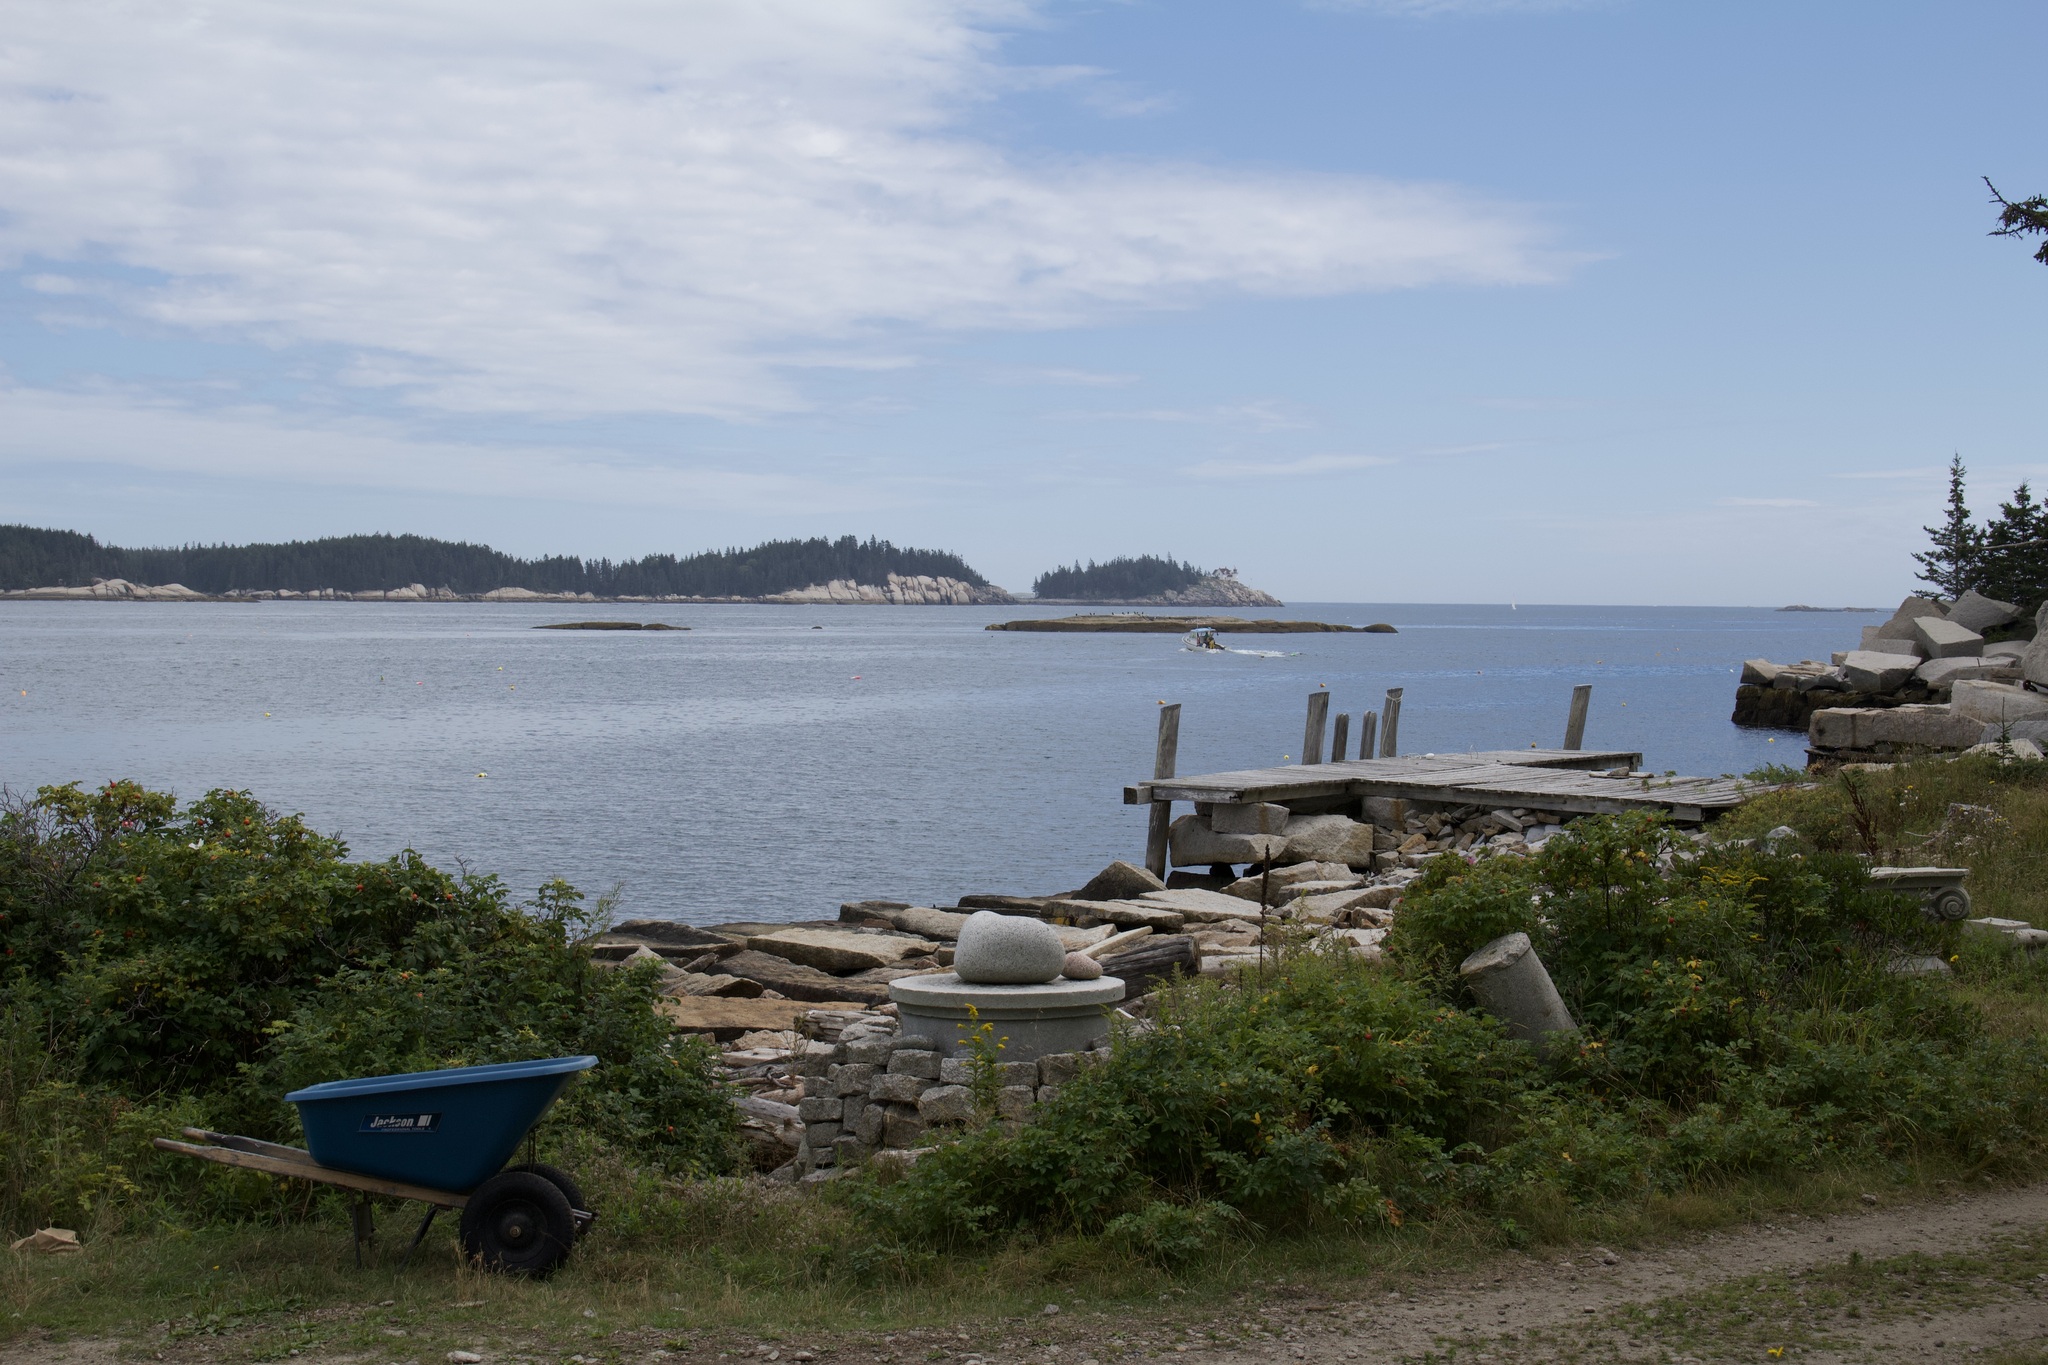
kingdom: Plantae
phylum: Tracheophyta
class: Magnoliopsida
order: Rosales
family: Rosaceae
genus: Rosa
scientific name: Rosa rugosa
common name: Japanese rose
